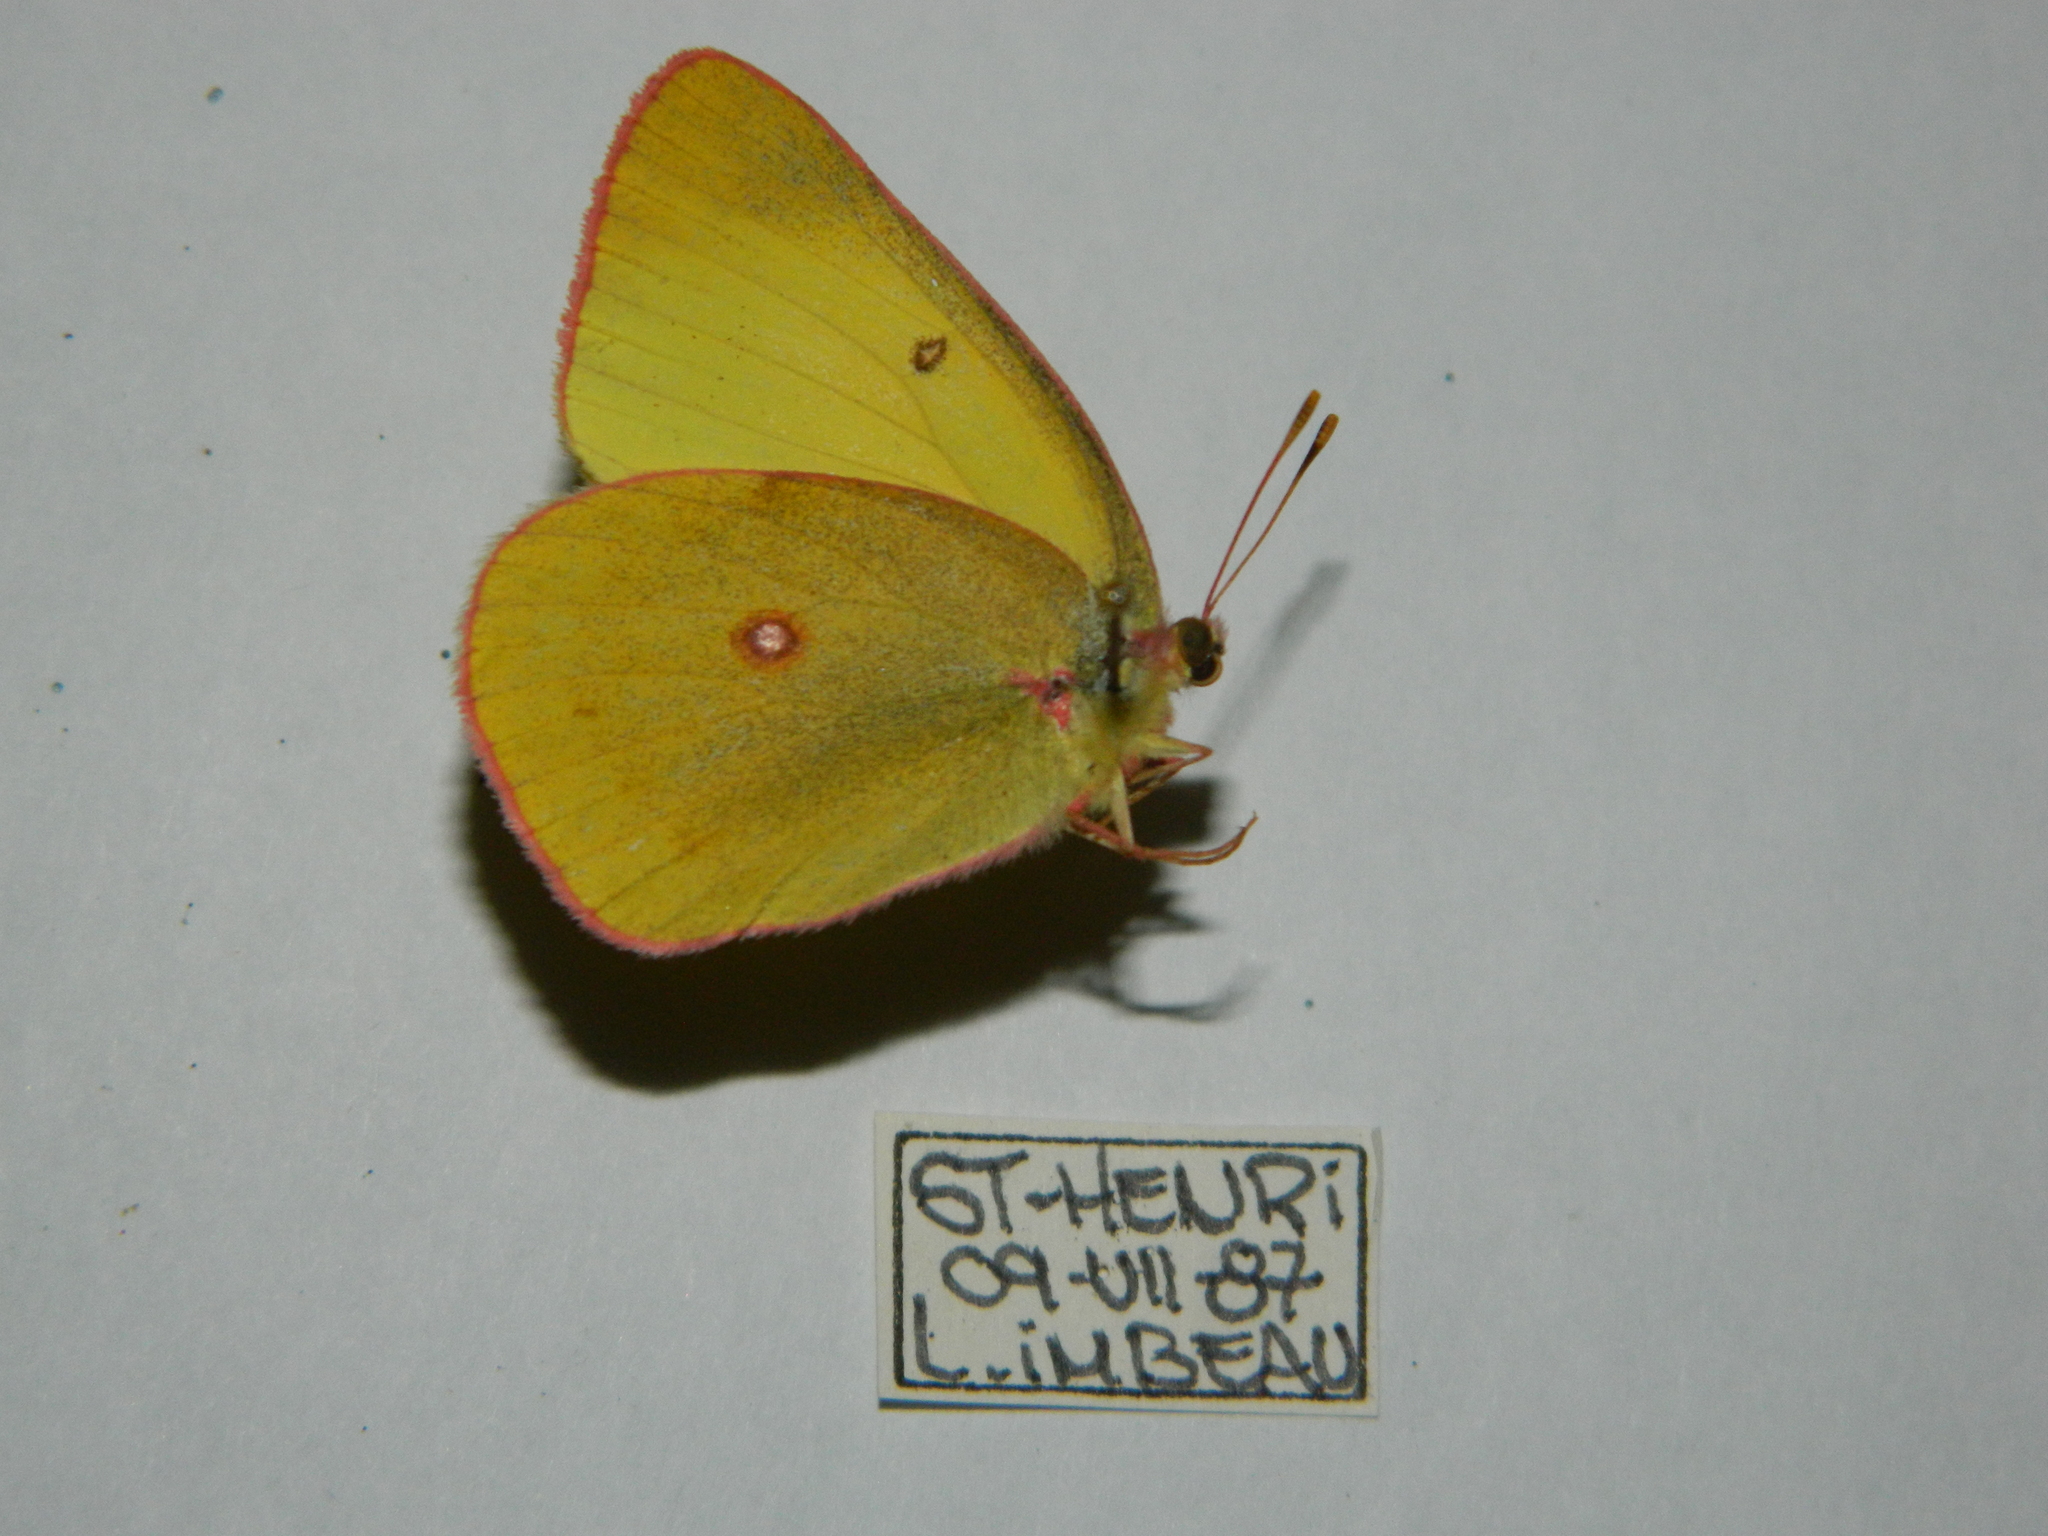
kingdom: Animalia
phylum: Arthropoda
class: Insecta
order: Lepidoptera
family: Pieridae
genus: Colias
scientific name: Colias interior
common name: Pink-edged sulphur
